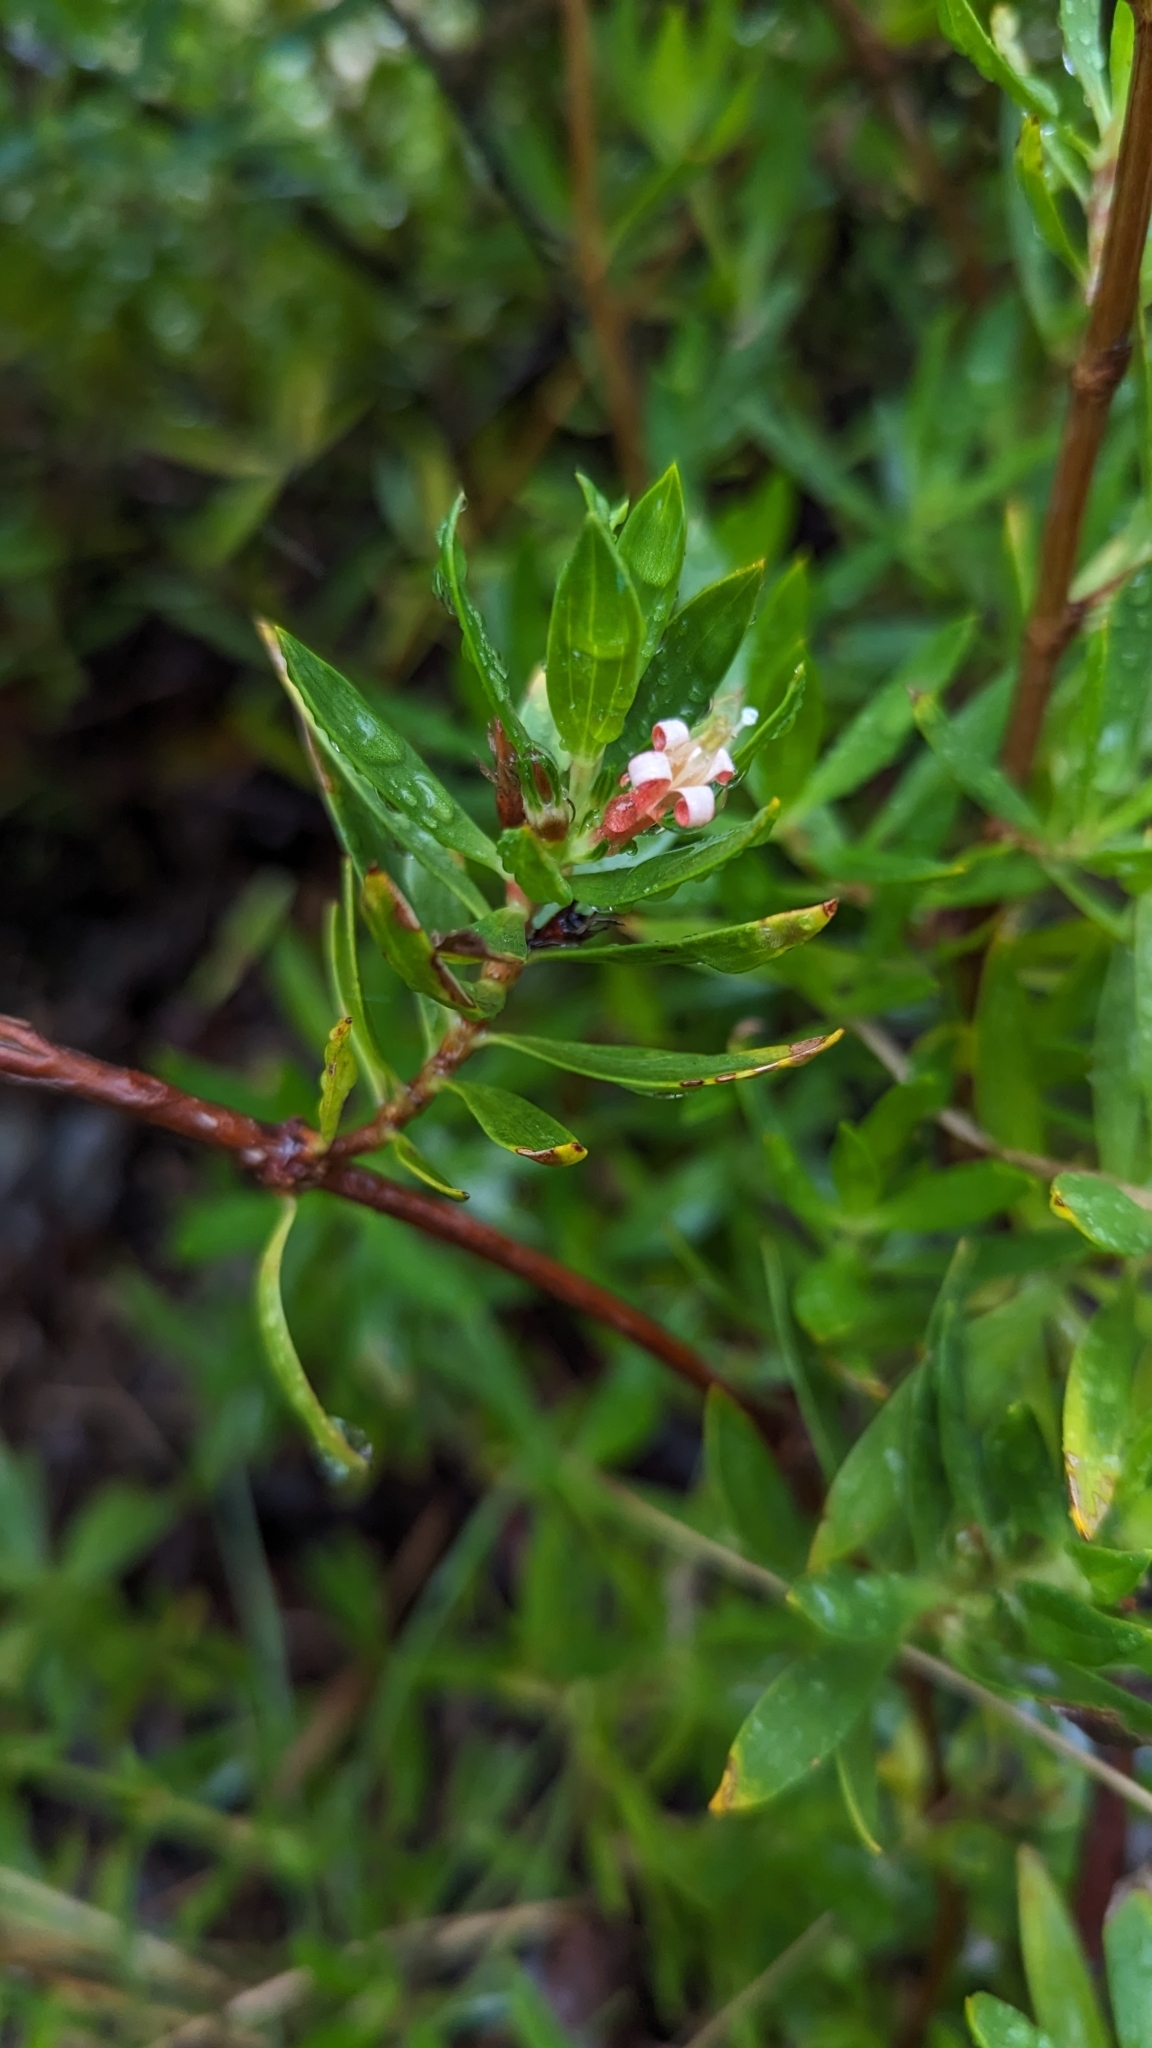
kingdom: Plantae
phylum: Tracheophyta
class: Magnoliopsida
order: Gentianales
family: Rubiaceae
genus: Ernodea
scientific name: Ernodea littoralis
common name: Beach creeper
